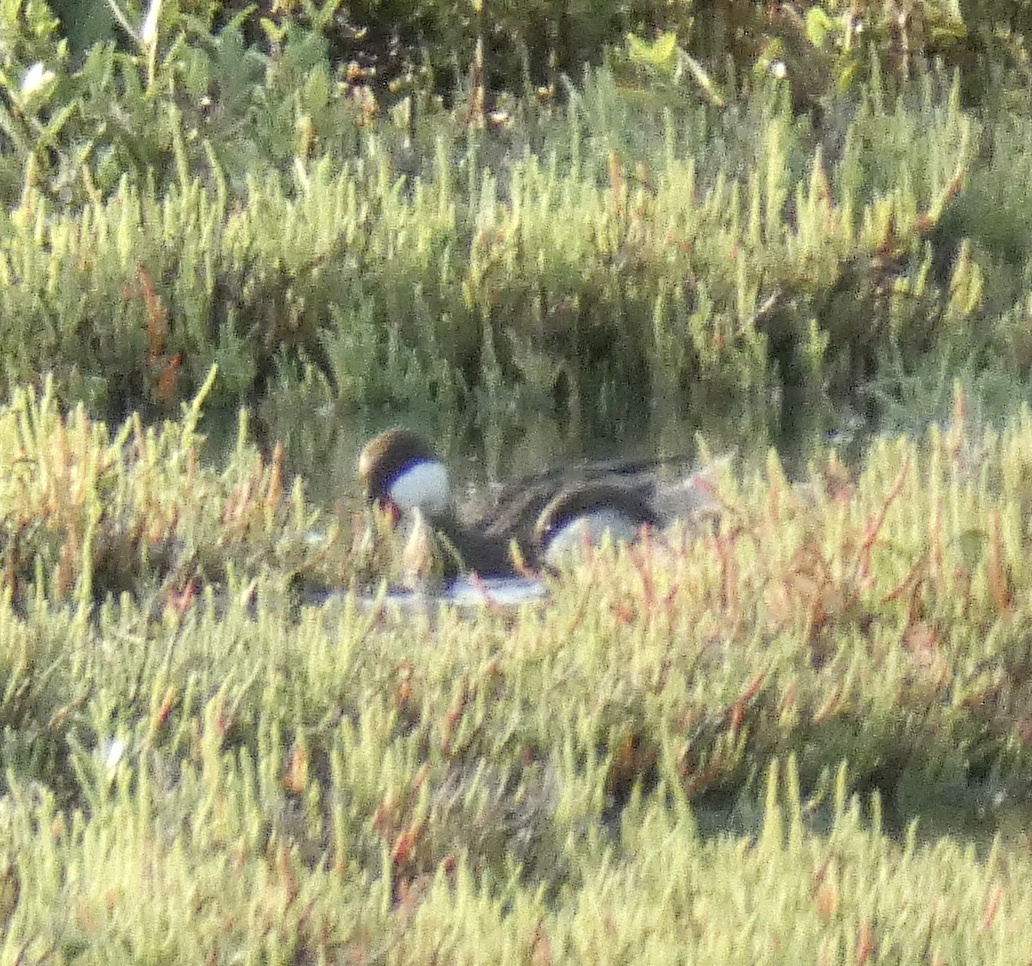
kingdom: Animalia
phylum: Chordata
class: Aves
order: Anseriformes
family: Anatidae
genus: Anas
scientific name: Anas bahamensis
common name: White-cheeked pintail
